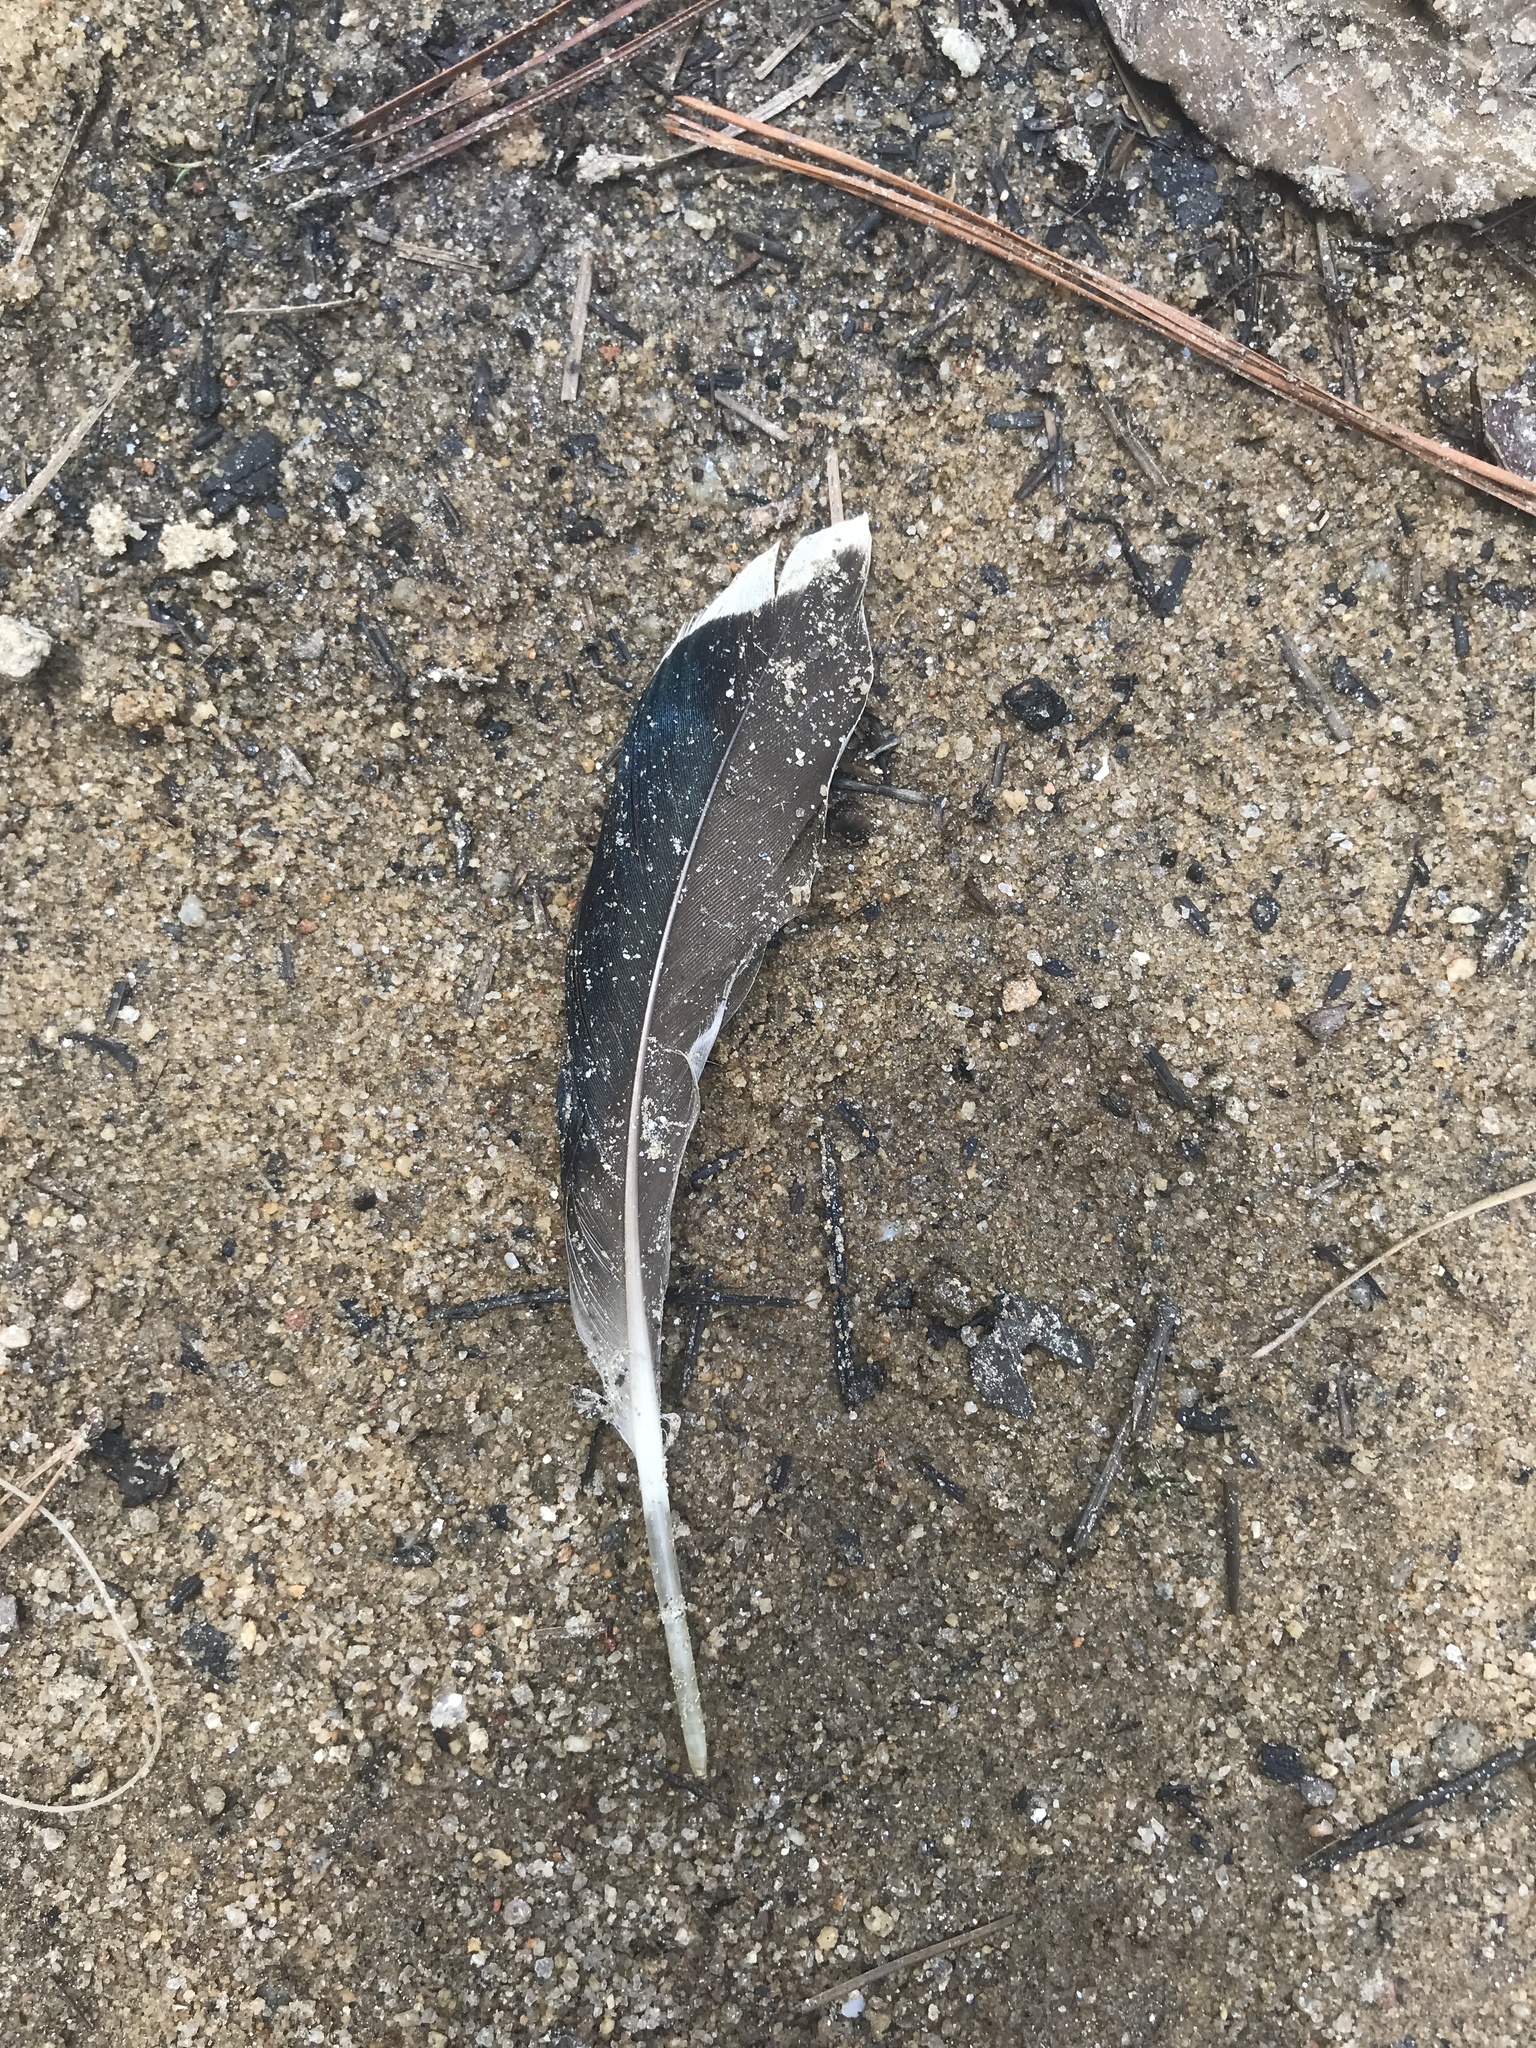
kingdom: Animalia
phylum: Chordata
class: Aves
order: Anseriformes
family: Anatidae
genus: Anas
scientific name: Anas platyrhynchos
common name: Mallard
